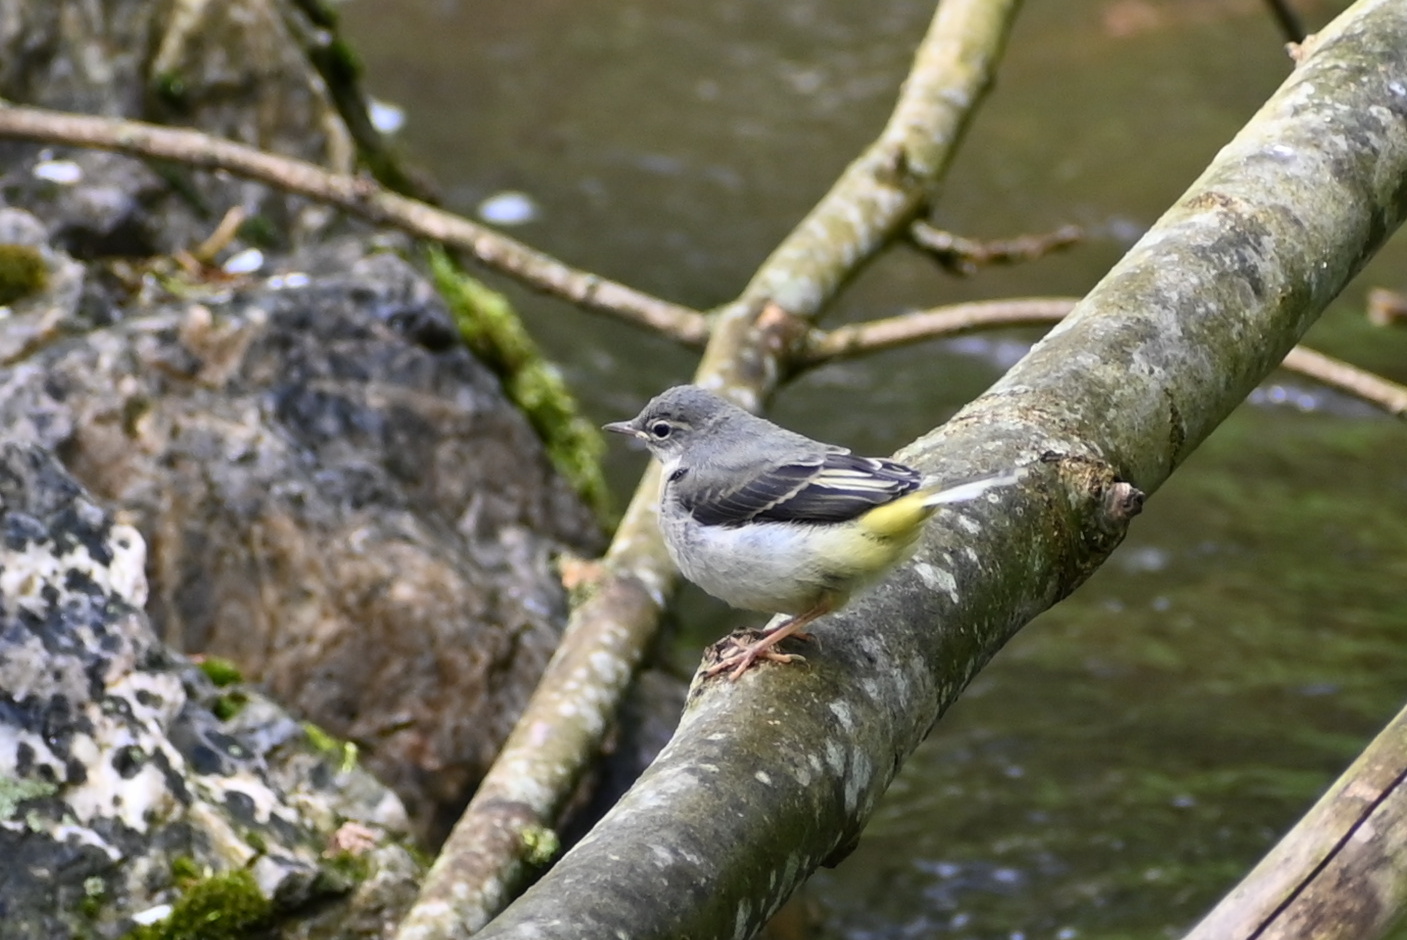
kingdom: Animalia
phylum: Chordata
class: Aves
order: Passeriformes
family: Motacillidae
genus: Motacilla
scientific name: Motacilla cinerea
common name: Grey wagtail
